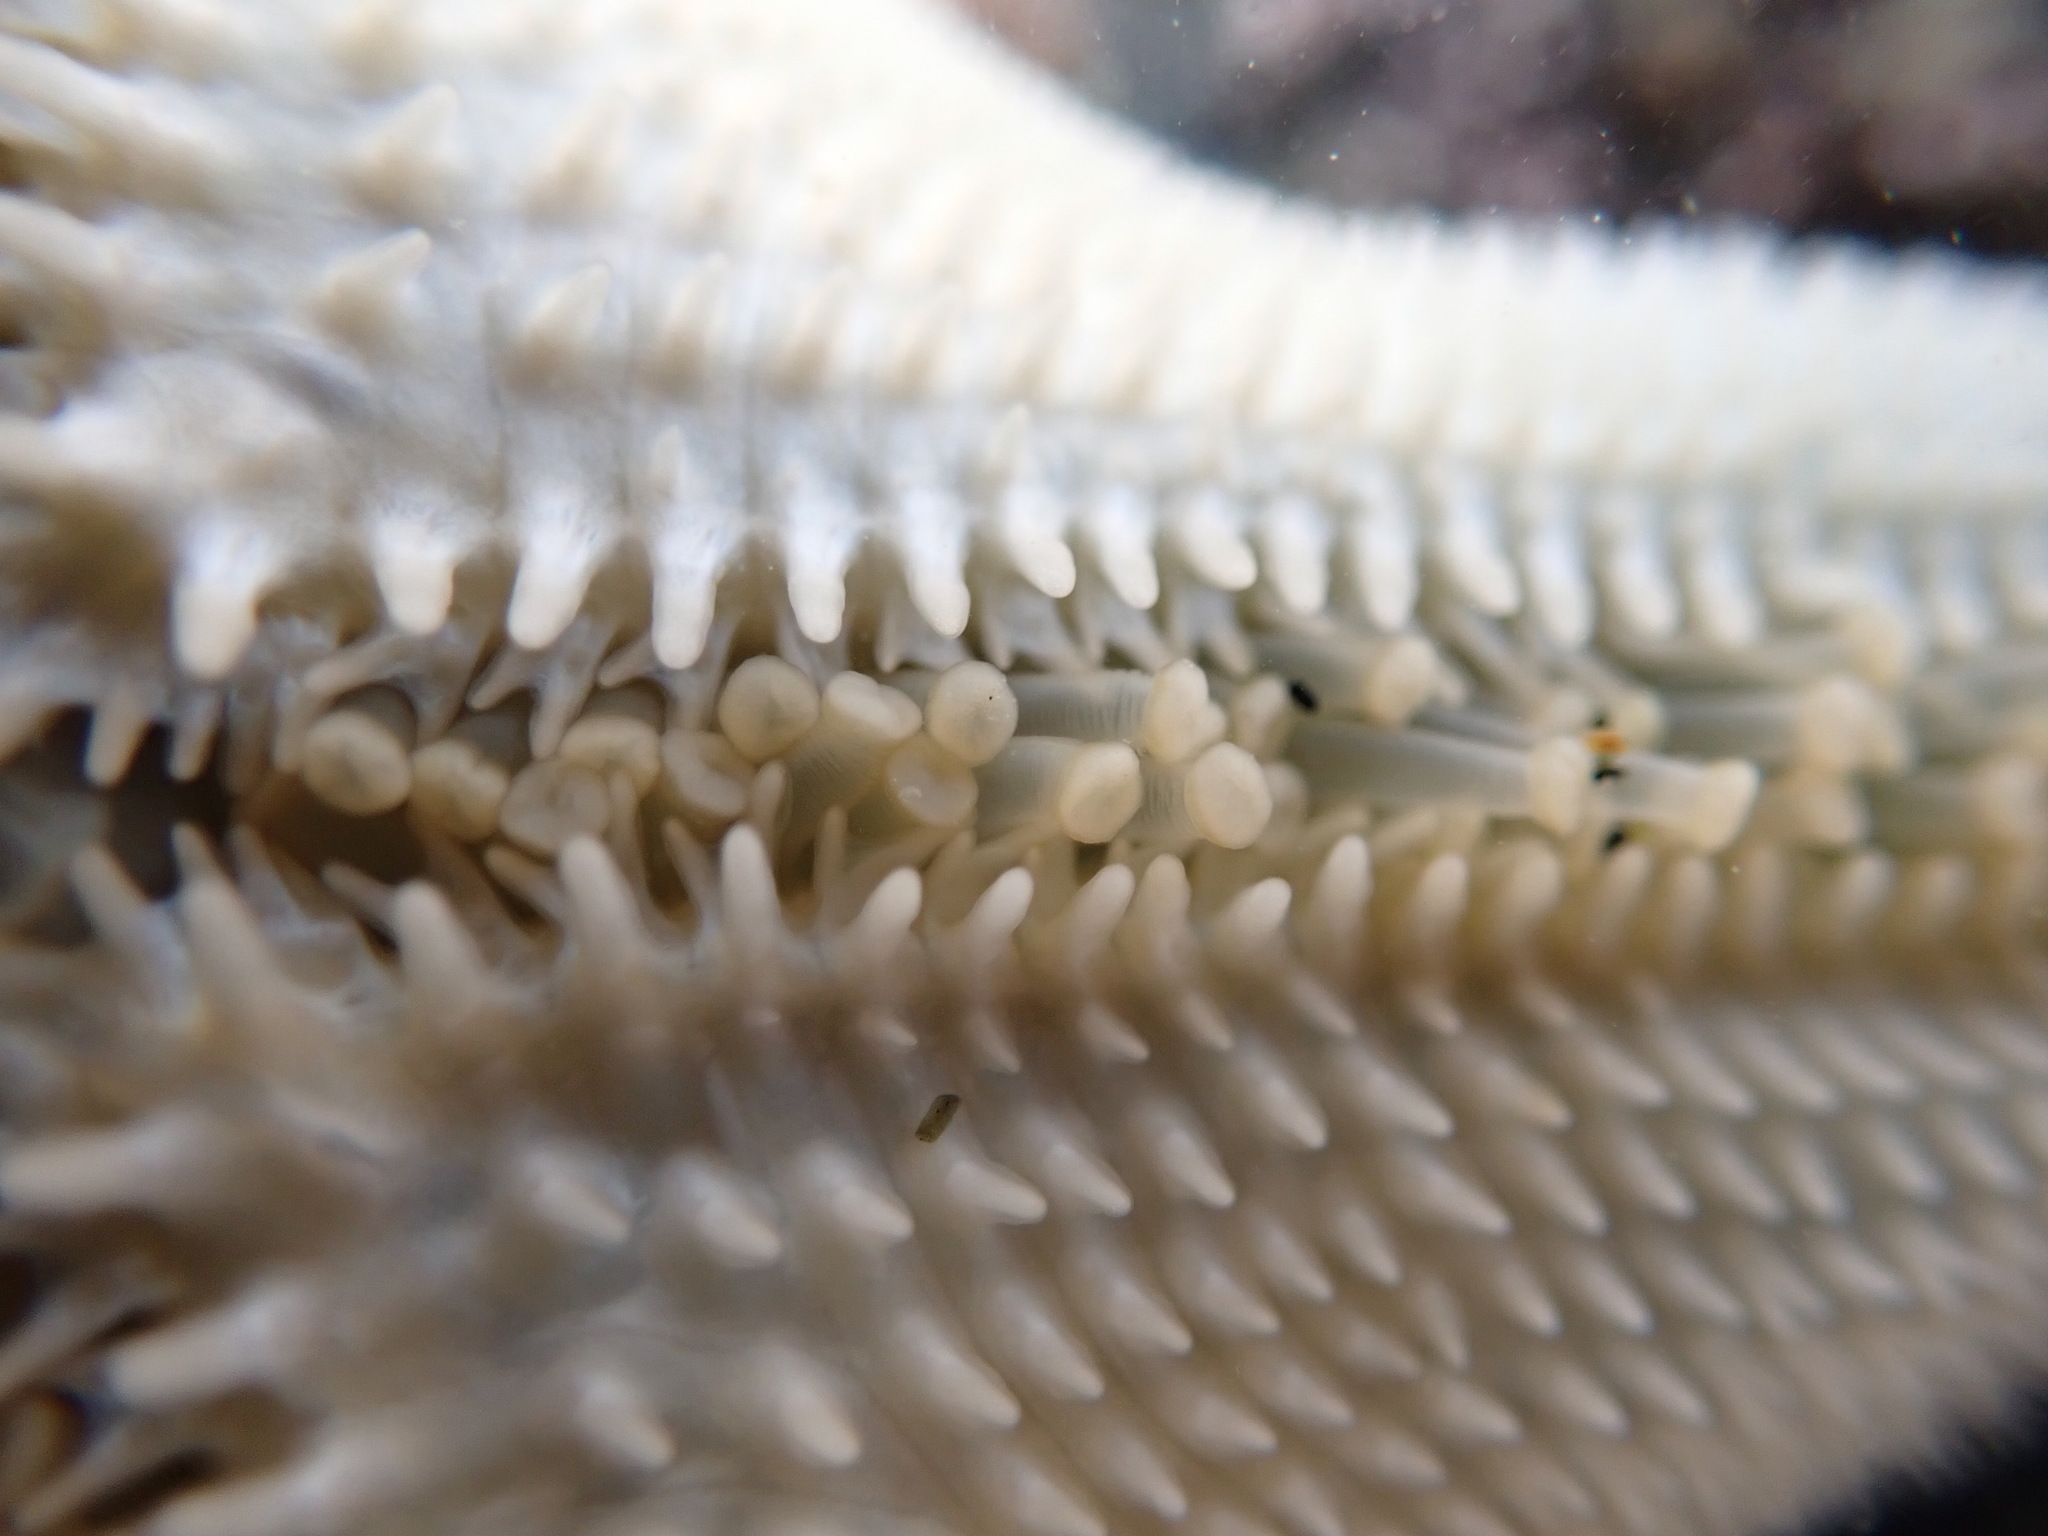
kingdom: Animalia
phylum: Echinodermata
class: Asteroidea
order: Valvatida
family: Asterinidae
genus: Patiriella
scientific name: Patiriella regularis
